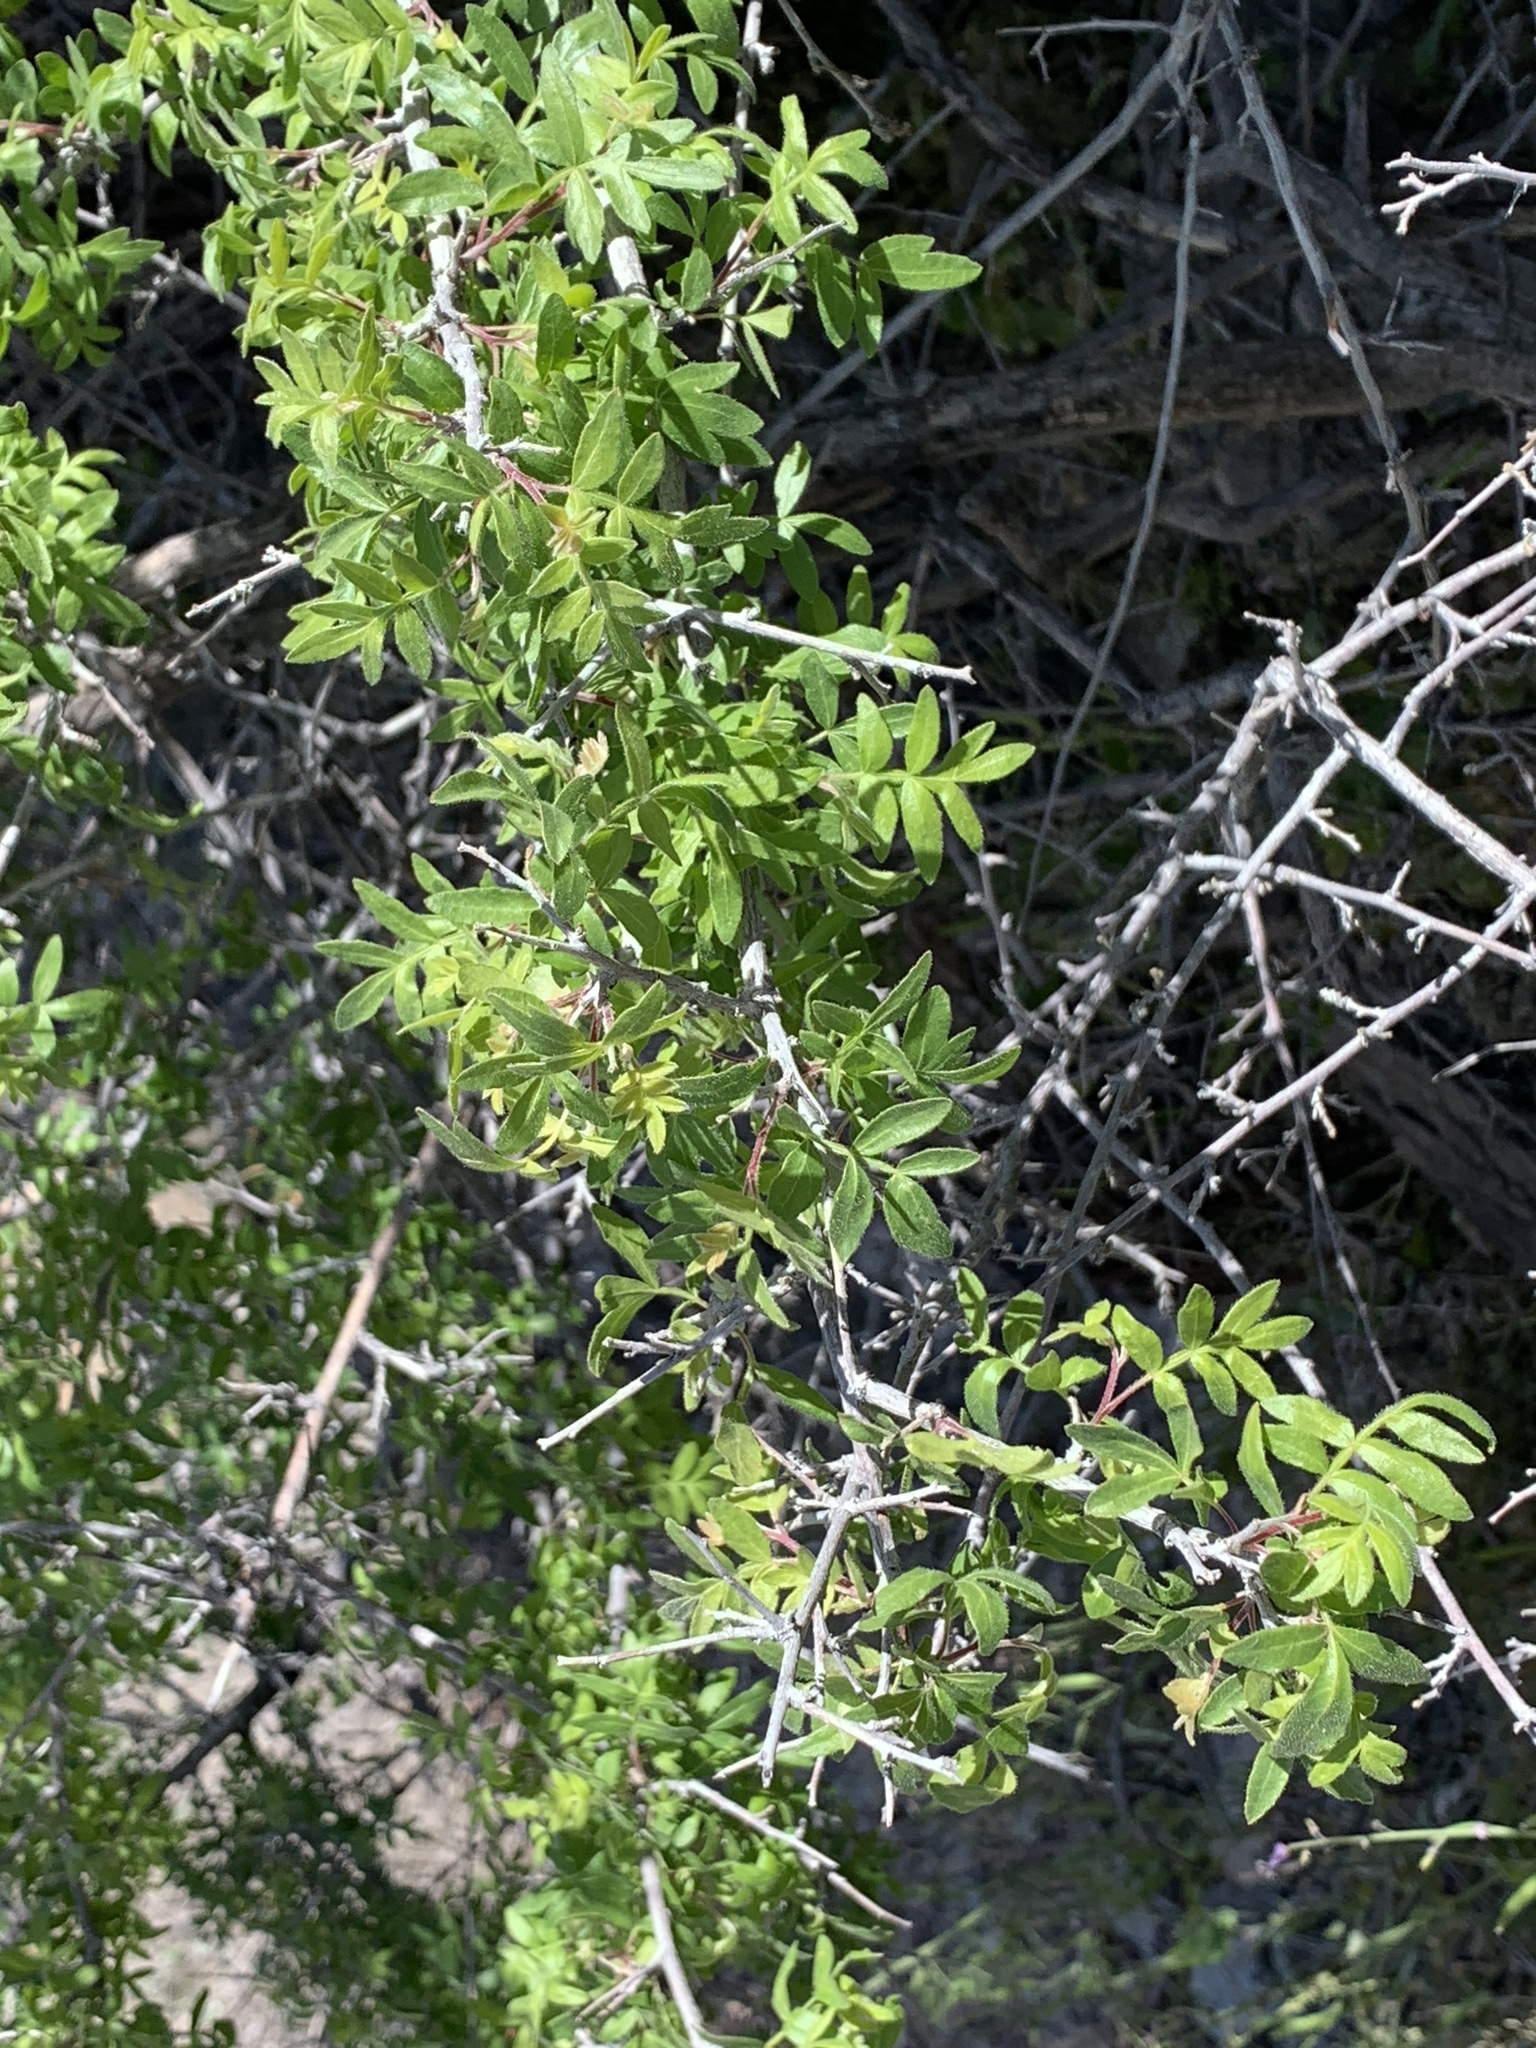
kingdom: Plantae
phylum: Tracheophyta
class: Magnoliopsida
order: Sapindales
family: Anacardiaceae
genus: Rhus
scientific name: Rhus microphylla
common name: Desert sumac
